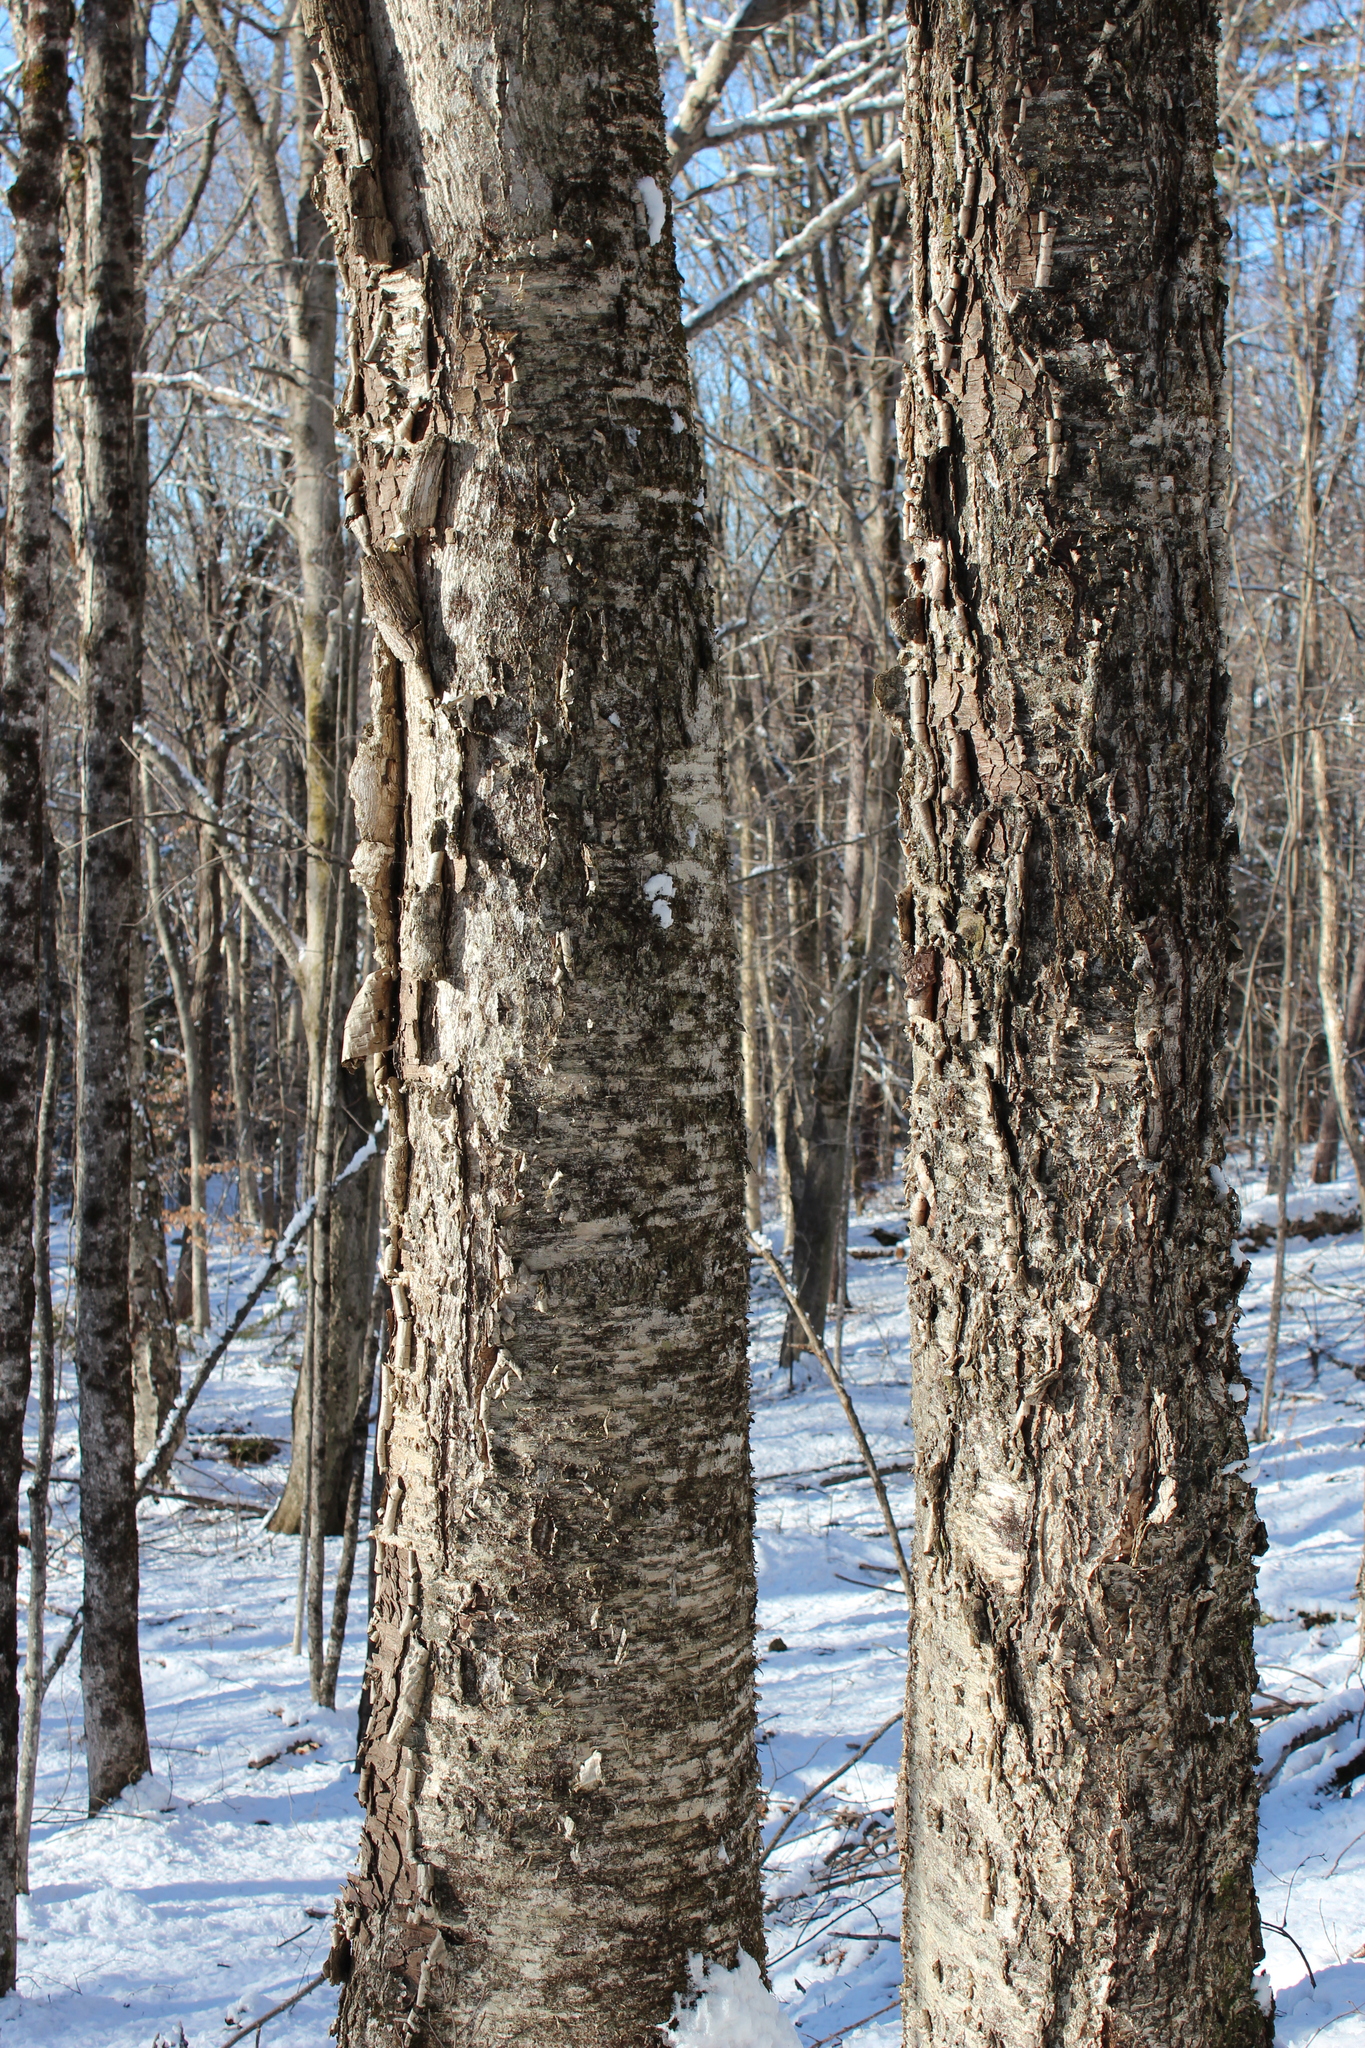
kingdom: Plantae
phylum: Tracheophyta
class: Magnoliopsida
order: Fagales
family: Betulaceae
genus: Betula
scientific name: Betula alleghaniensis
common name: Yellow birch
